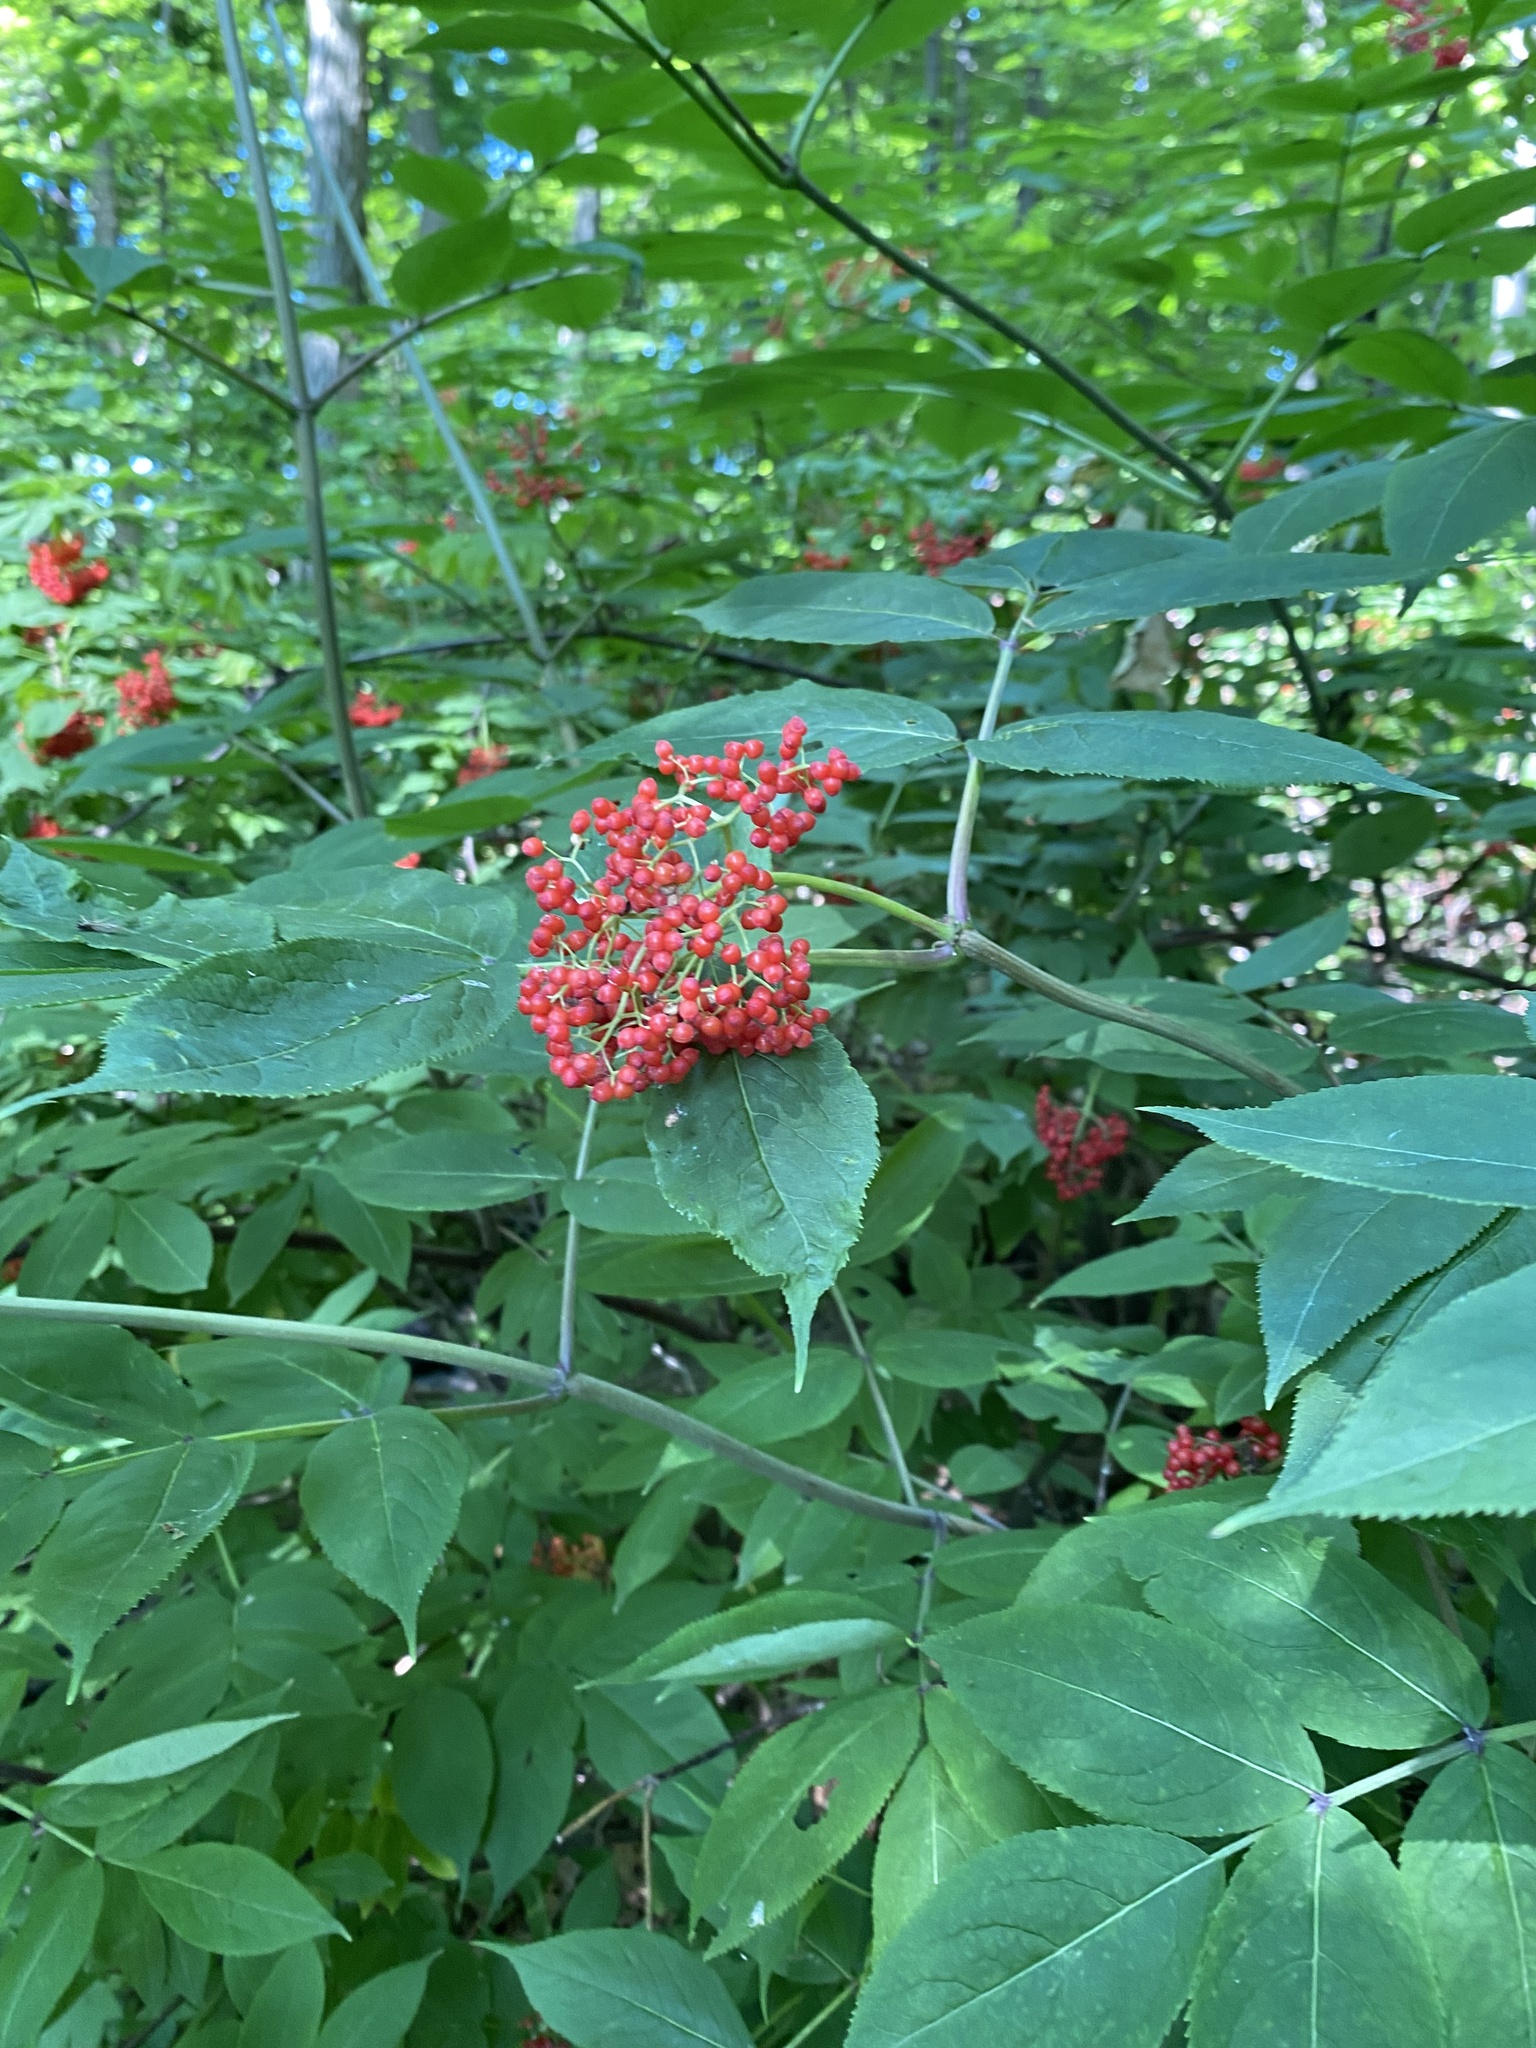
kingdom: Plantae
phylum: Tracheophyta
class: Magnoliopsida
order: Dipsacales
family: Viburnaceae
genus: Sambucus
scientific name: Sambucus racemosa
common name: Red-berried elder
